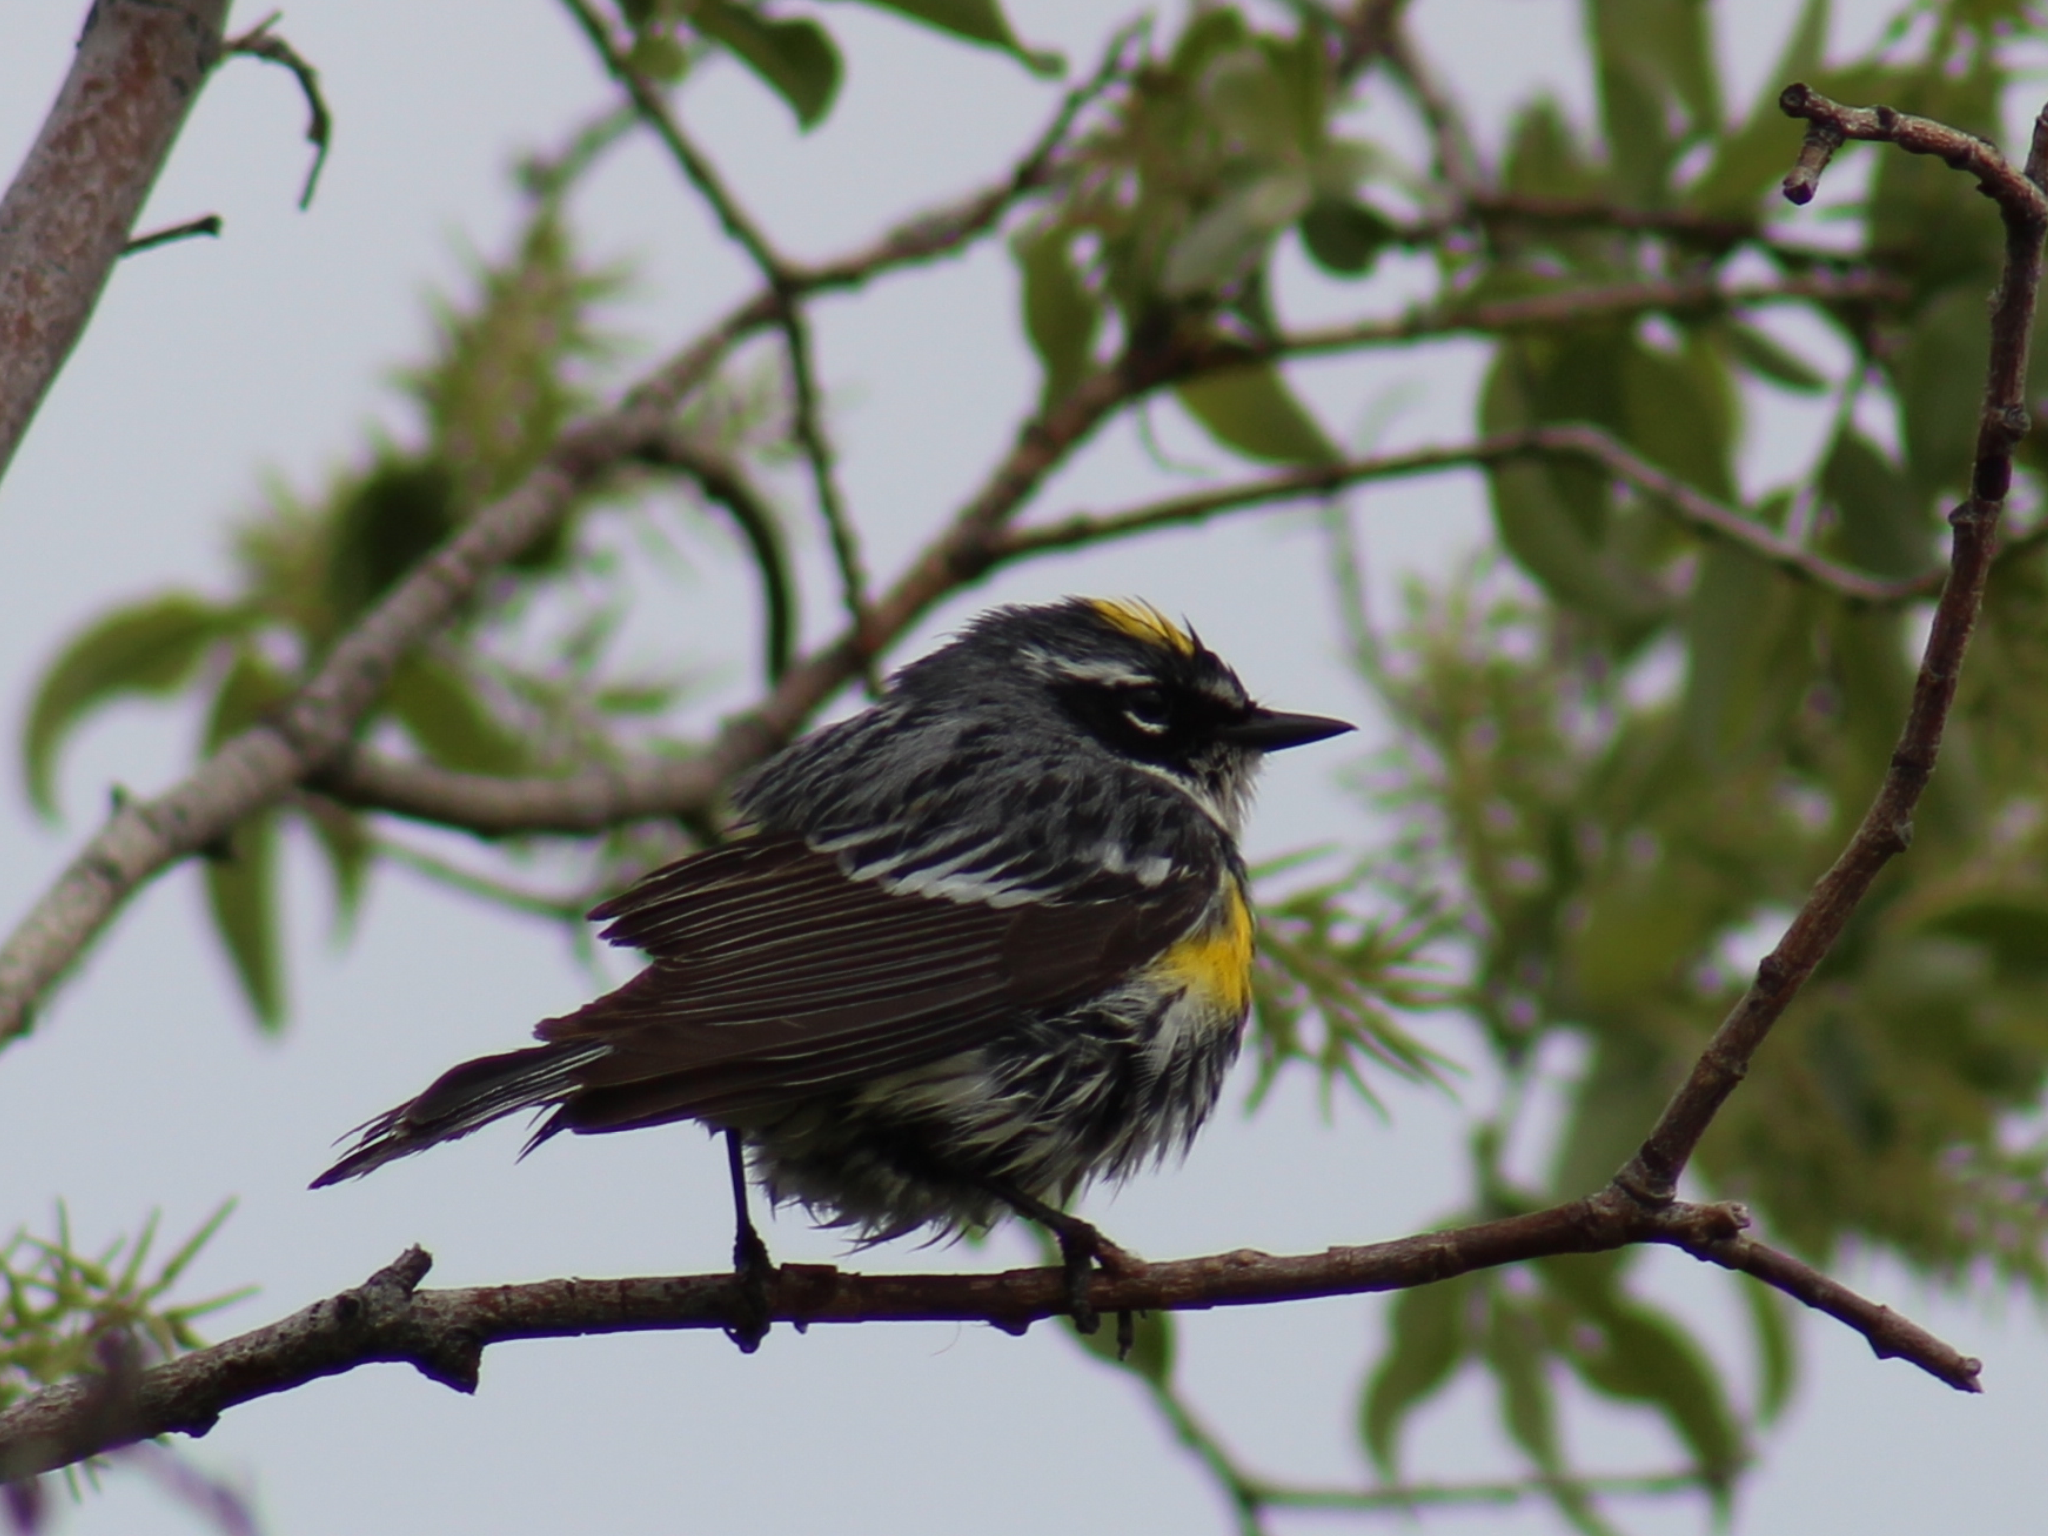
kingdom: Animalia
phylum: Chordata
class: Aves
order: Passeriformes
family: Parulidae
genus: Setophaga
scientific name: Setophaga coronata
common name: Myrtle warbler
